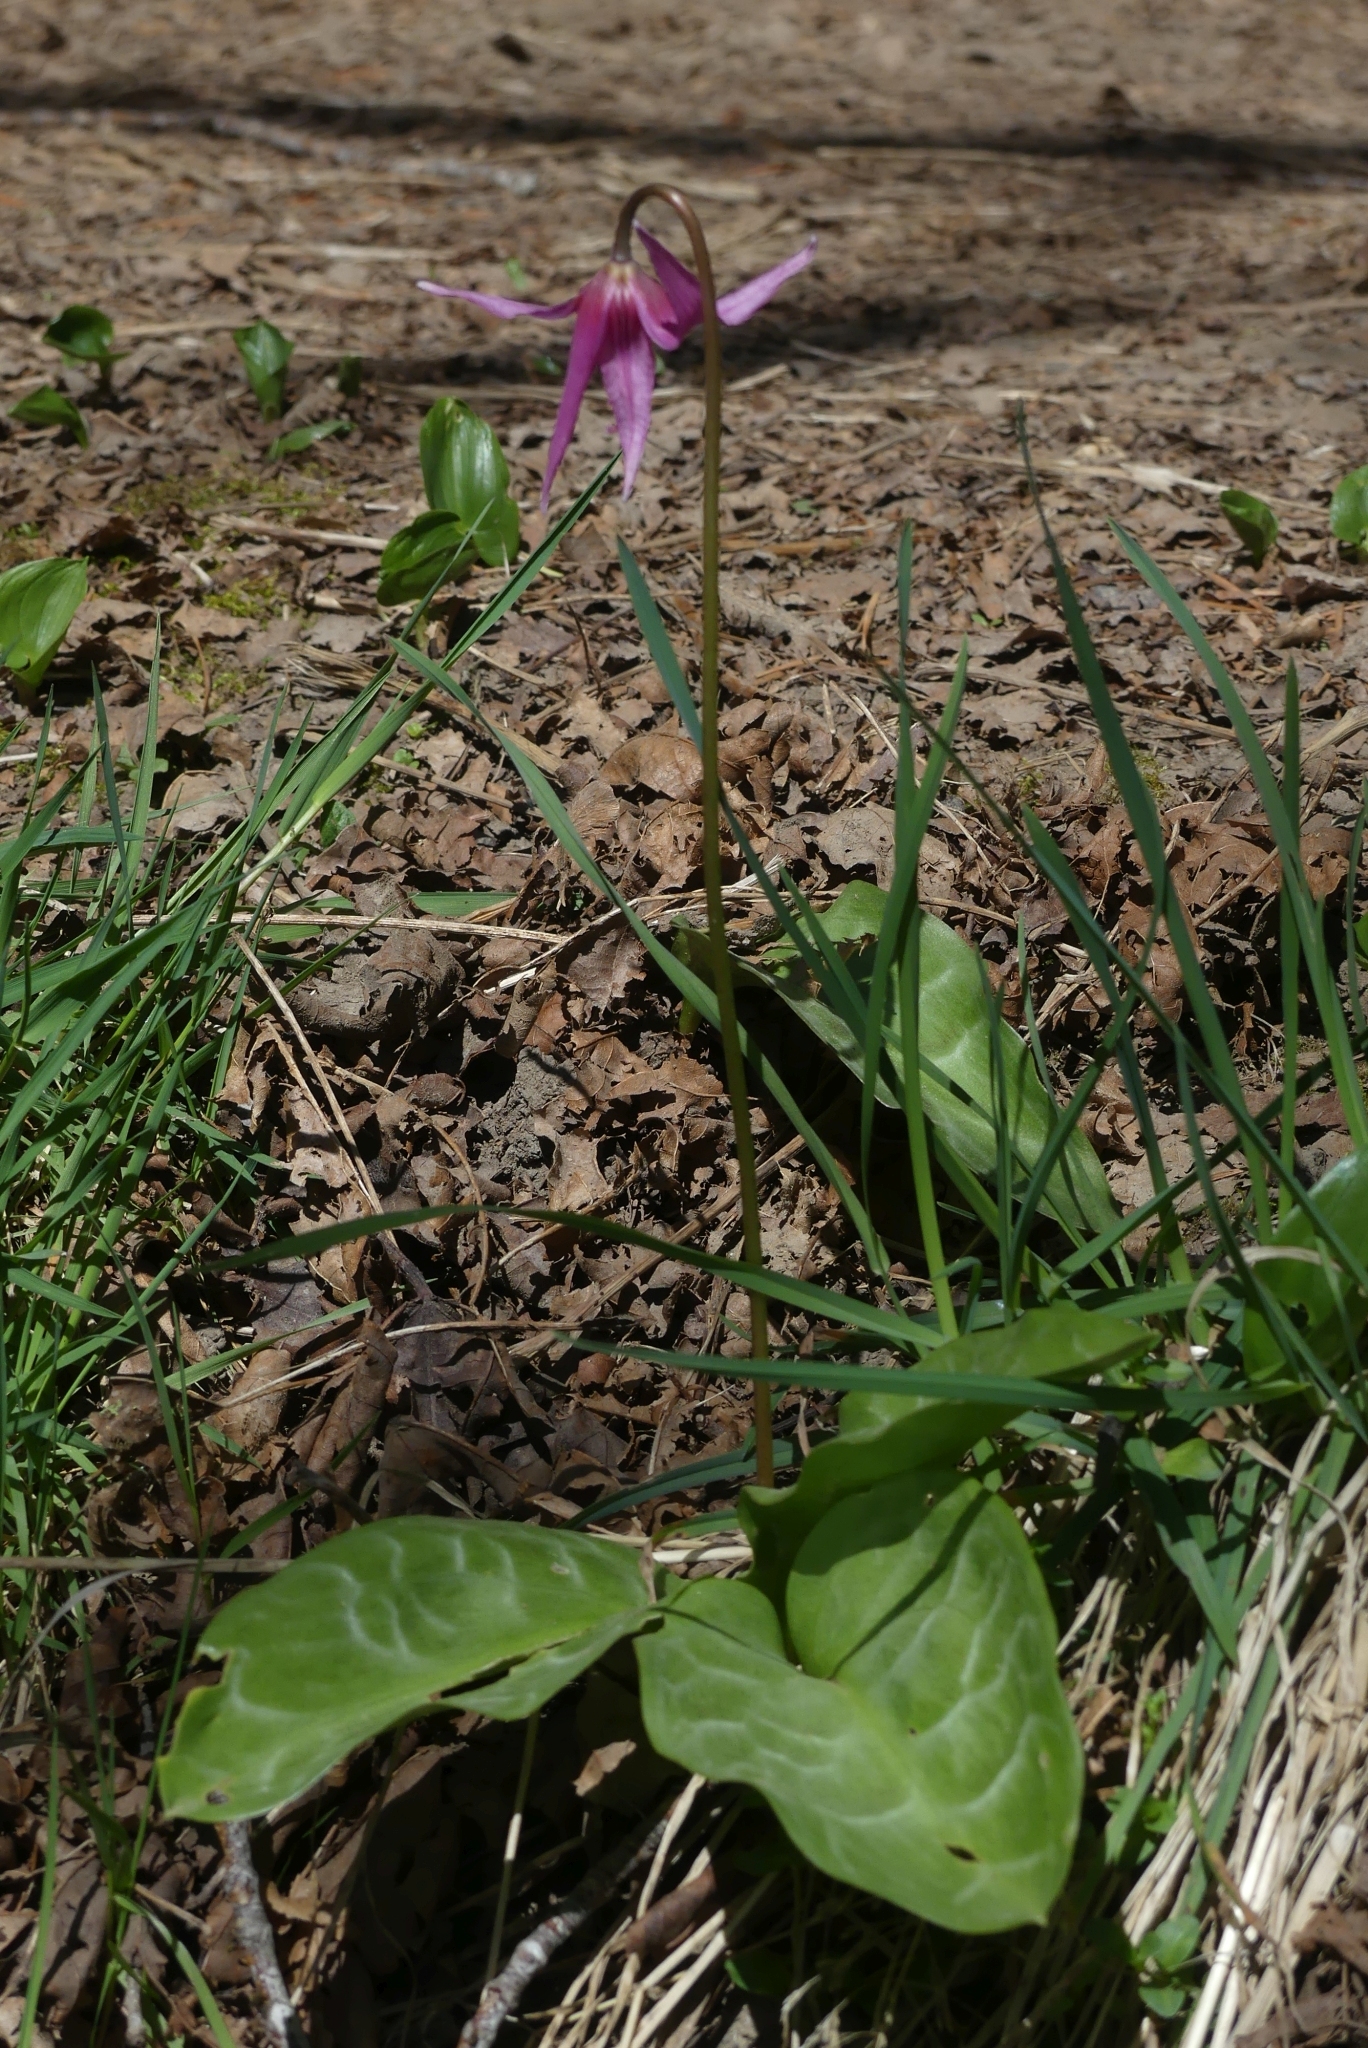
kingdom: Plantae
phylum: Tracheophyta
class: Liliopsida
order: Liliales
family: Liliaceae
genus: Erythronium
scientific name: Erythronium revolutum
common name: Pink fawn-lily
